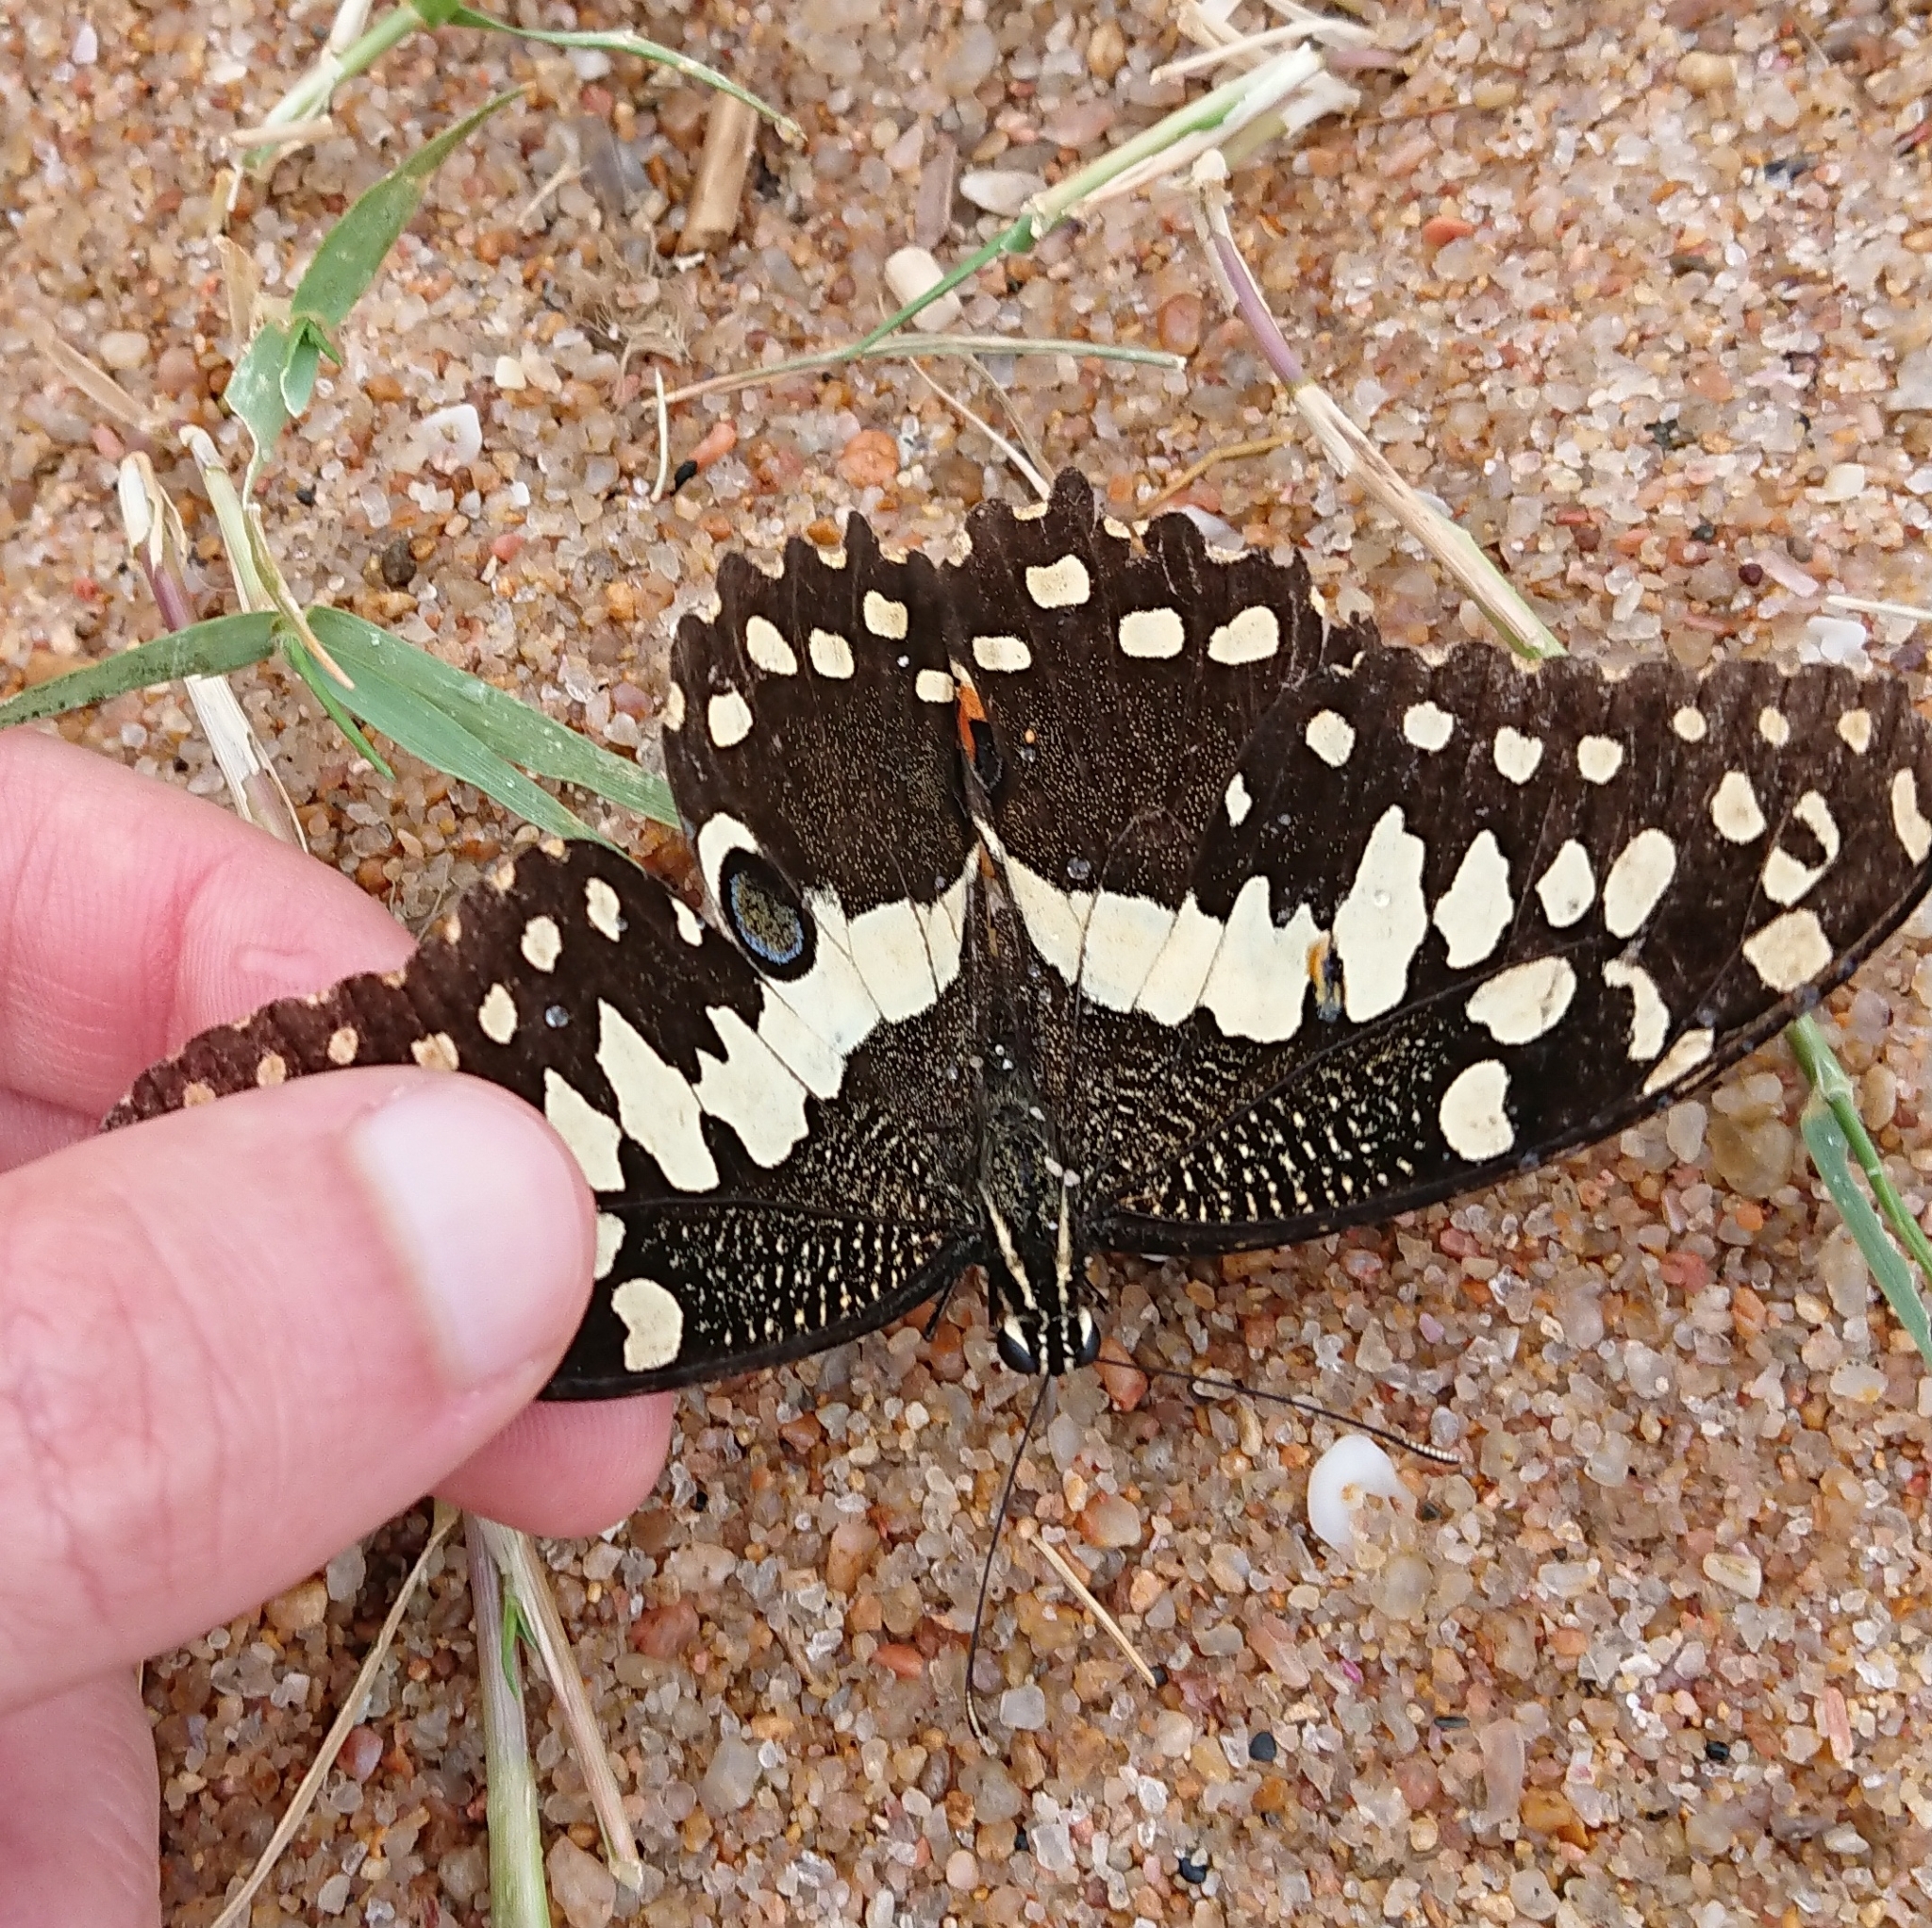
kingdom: Animalia
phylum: Arthropoda
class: Insecta
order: Lepidoptera
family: Papilionidae
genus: Papilio
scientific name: Papilio demodocus
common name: Christmas butterfly
